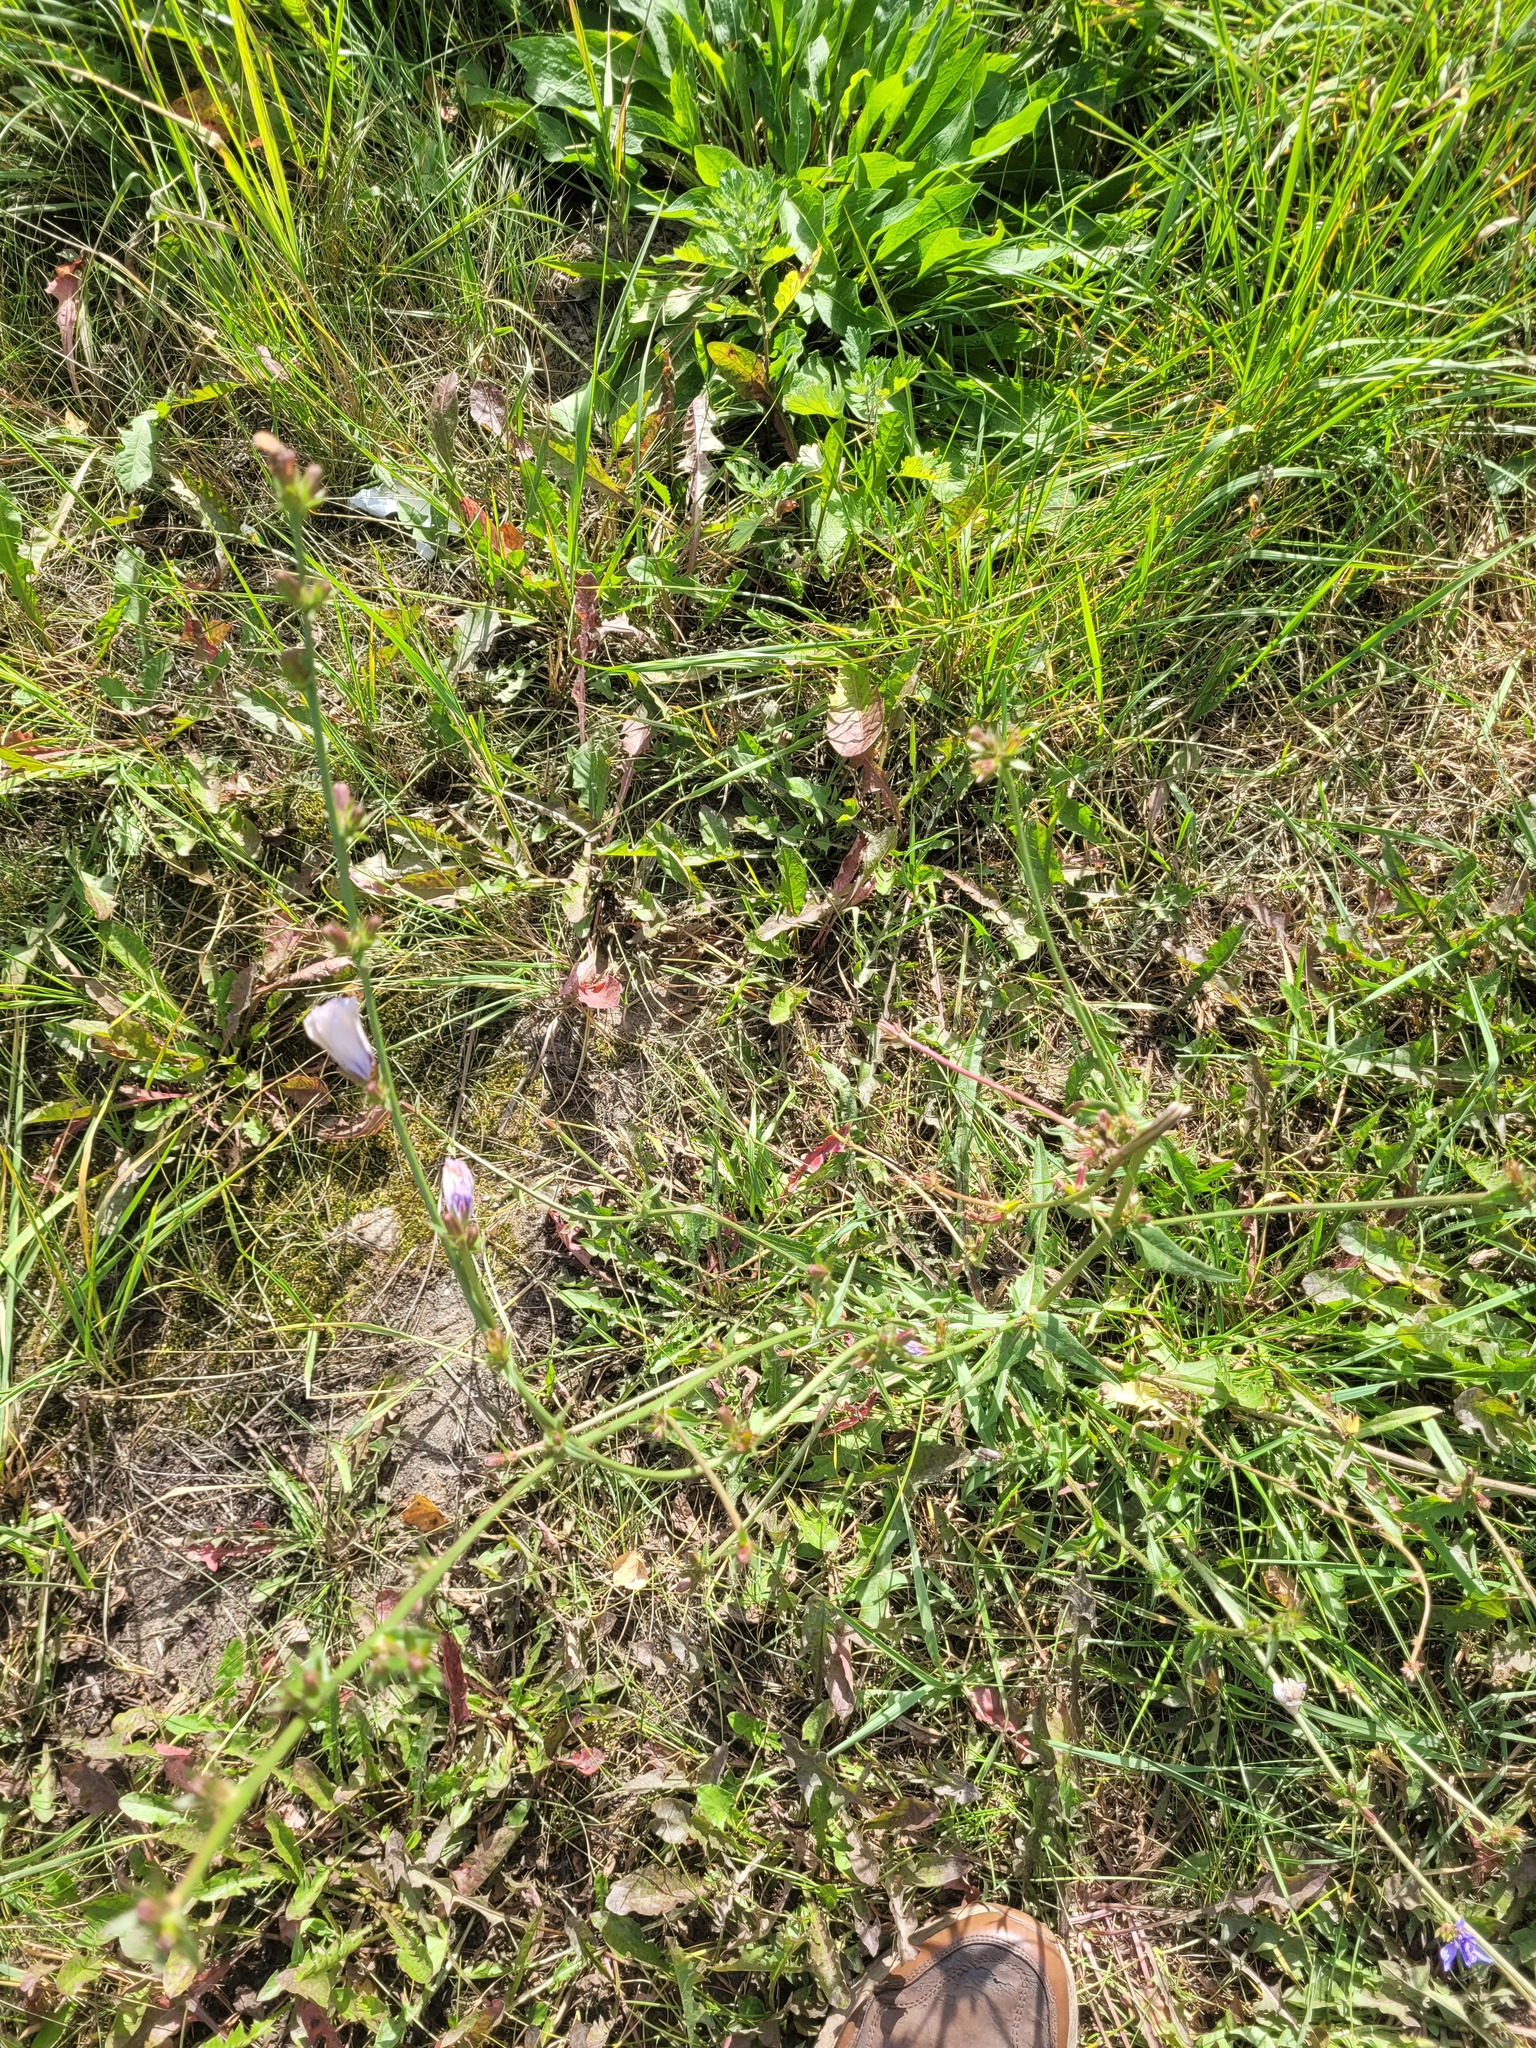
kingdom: Plantae
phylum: Tracheophyta
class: Magnoliopsida
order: Asterales
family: Asteraceae
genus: Cichorium
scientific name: Cichorium intybus
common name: Chicory
